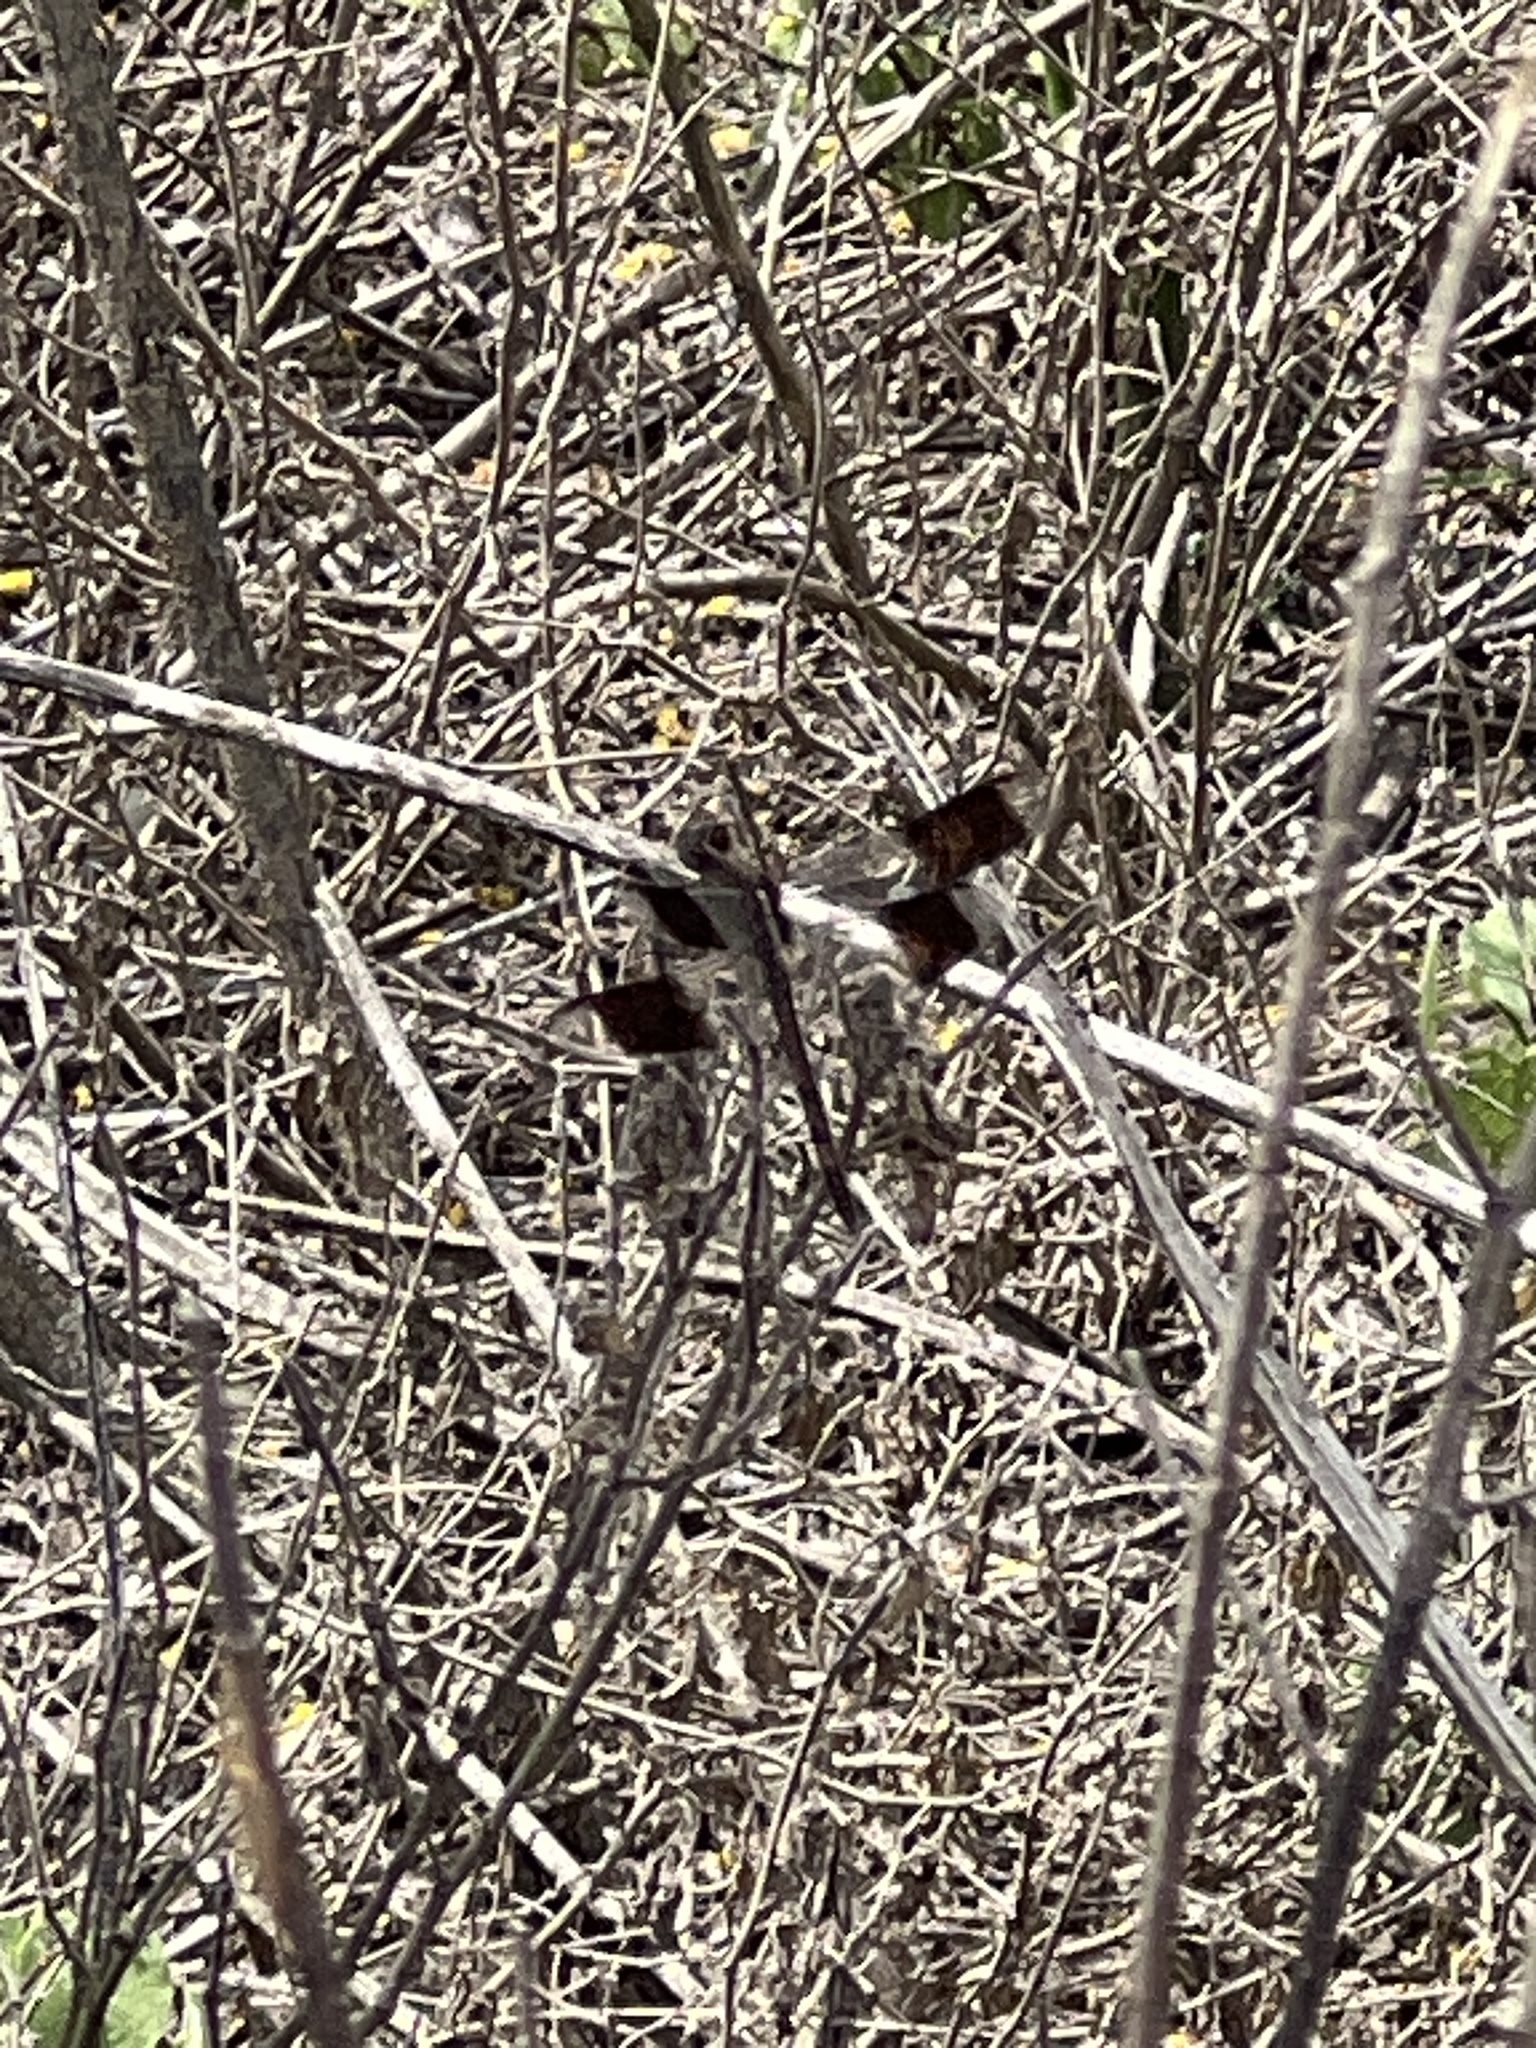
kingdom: Animalia
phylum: Arthropoda
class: Insecta
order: Odonata
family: Libellulidae
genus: Erythrodiplax
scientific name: Erythrodiplax umbrata
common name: Band-winged dragonlet
